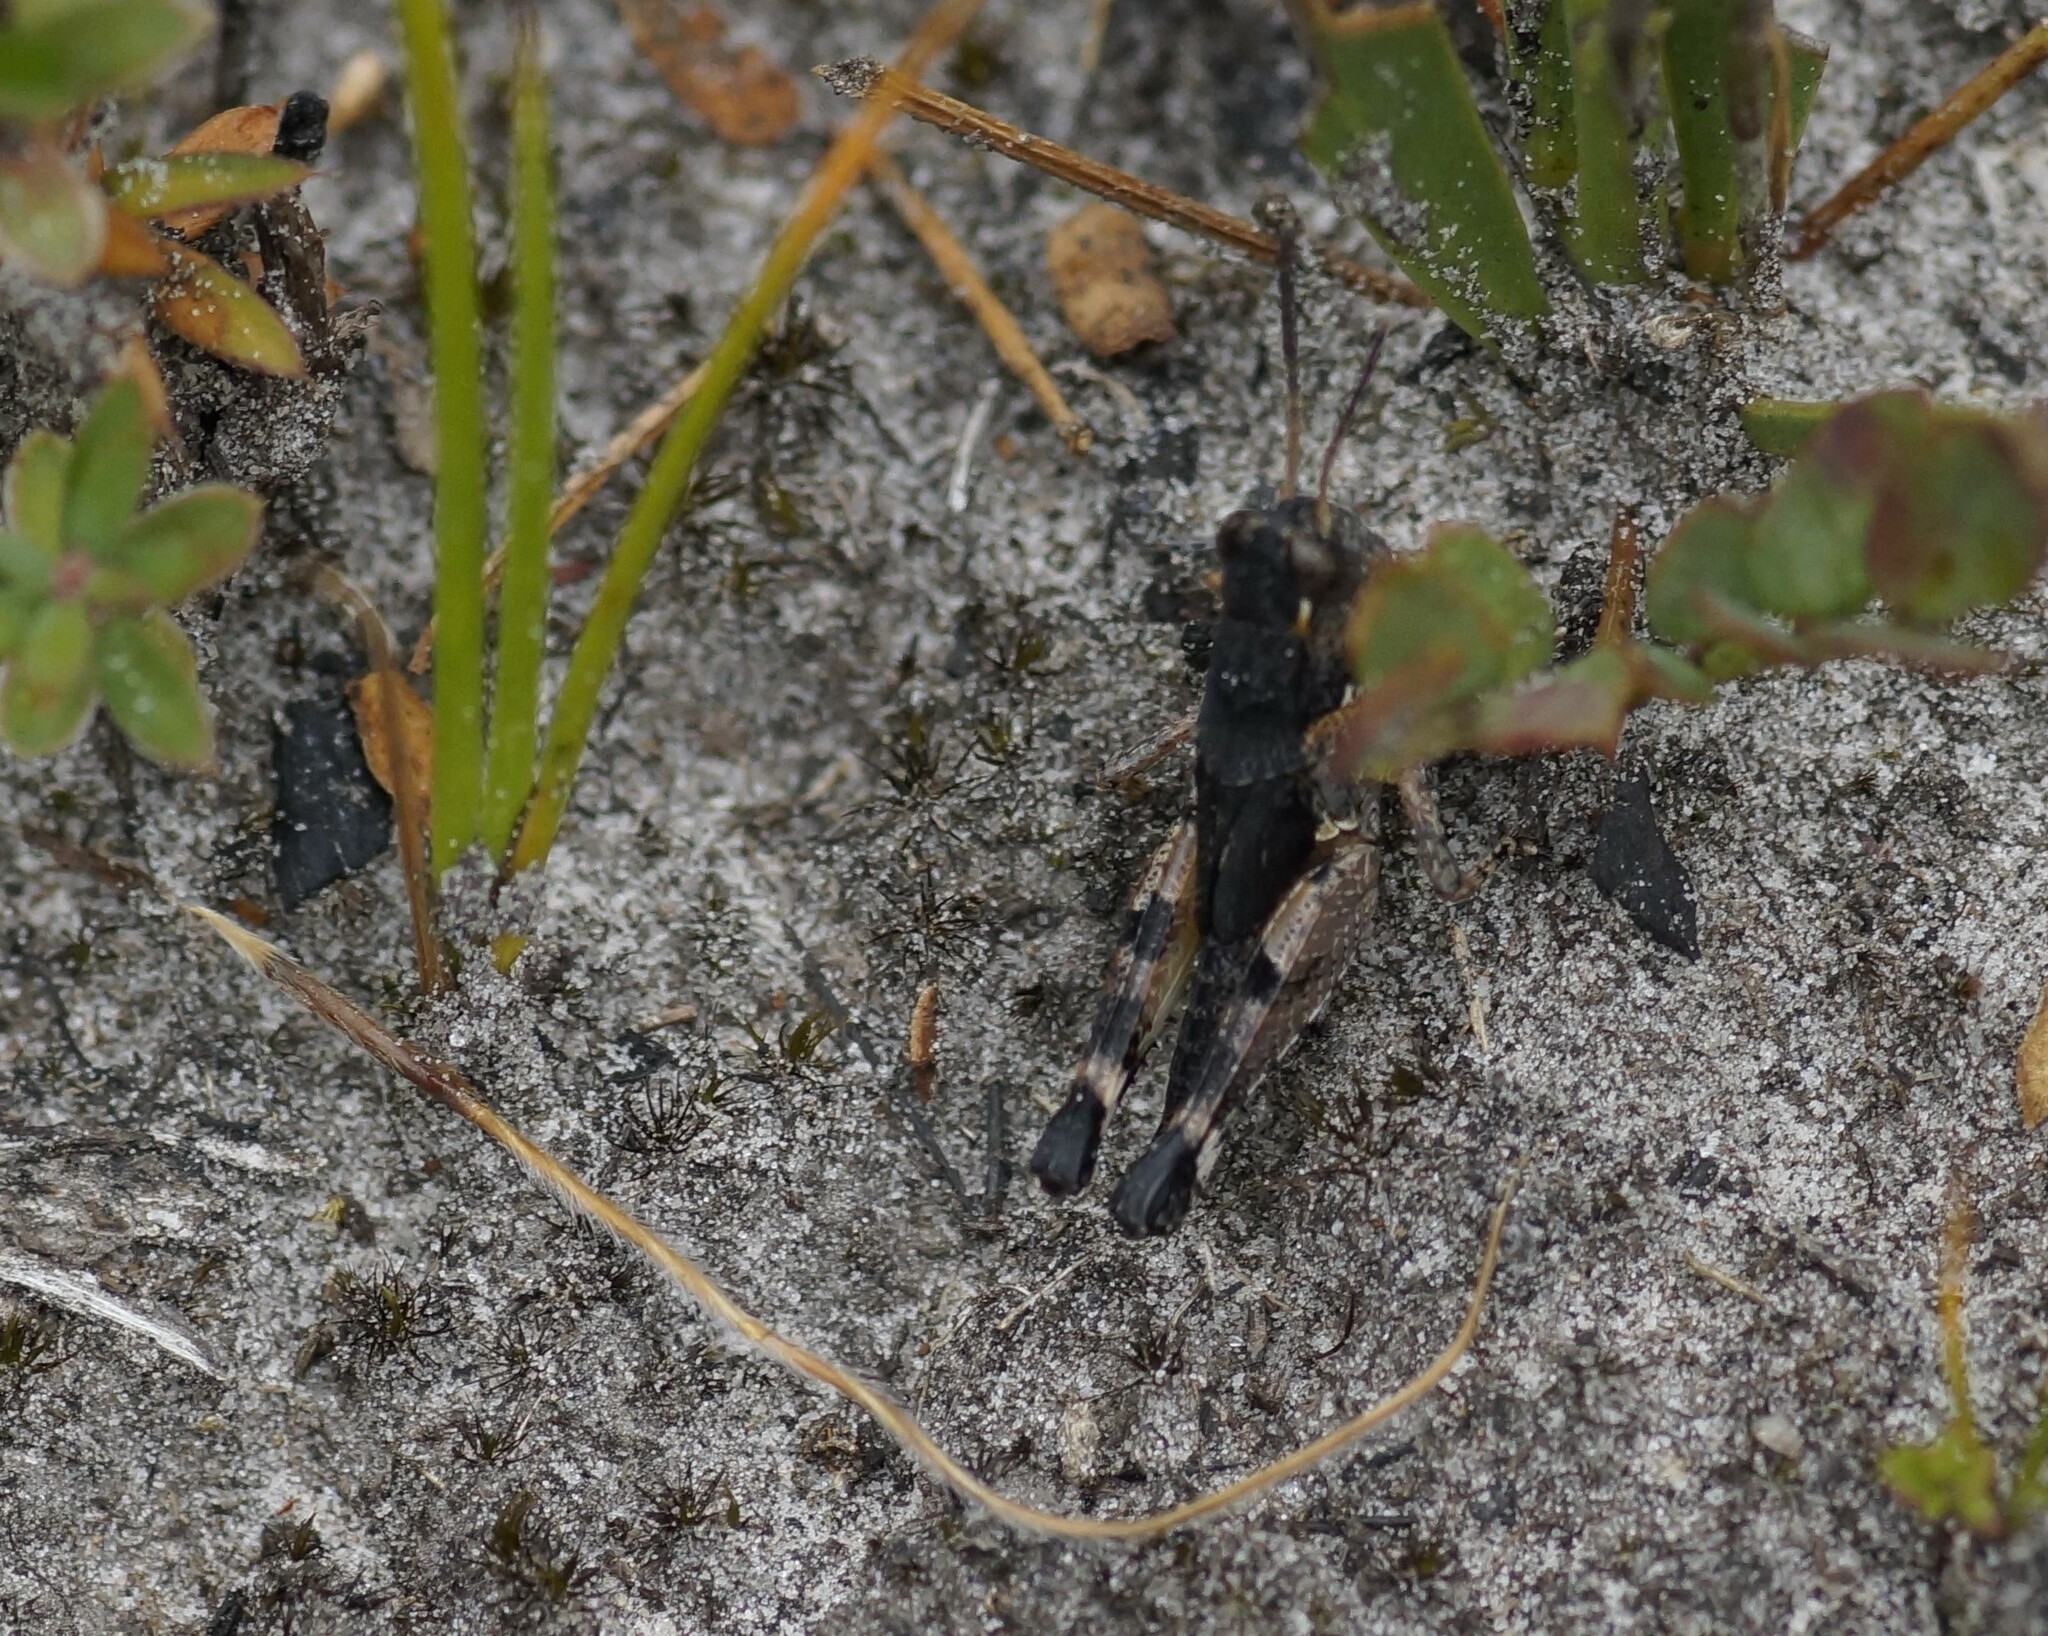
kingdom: Animalia
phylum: Arthropoda
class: Insecta
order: Orthoptera
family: Acrididae
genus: Brachyexarna
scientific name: Brachyexarna lobipennis
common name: Stripe-winged meadow grasshopper
